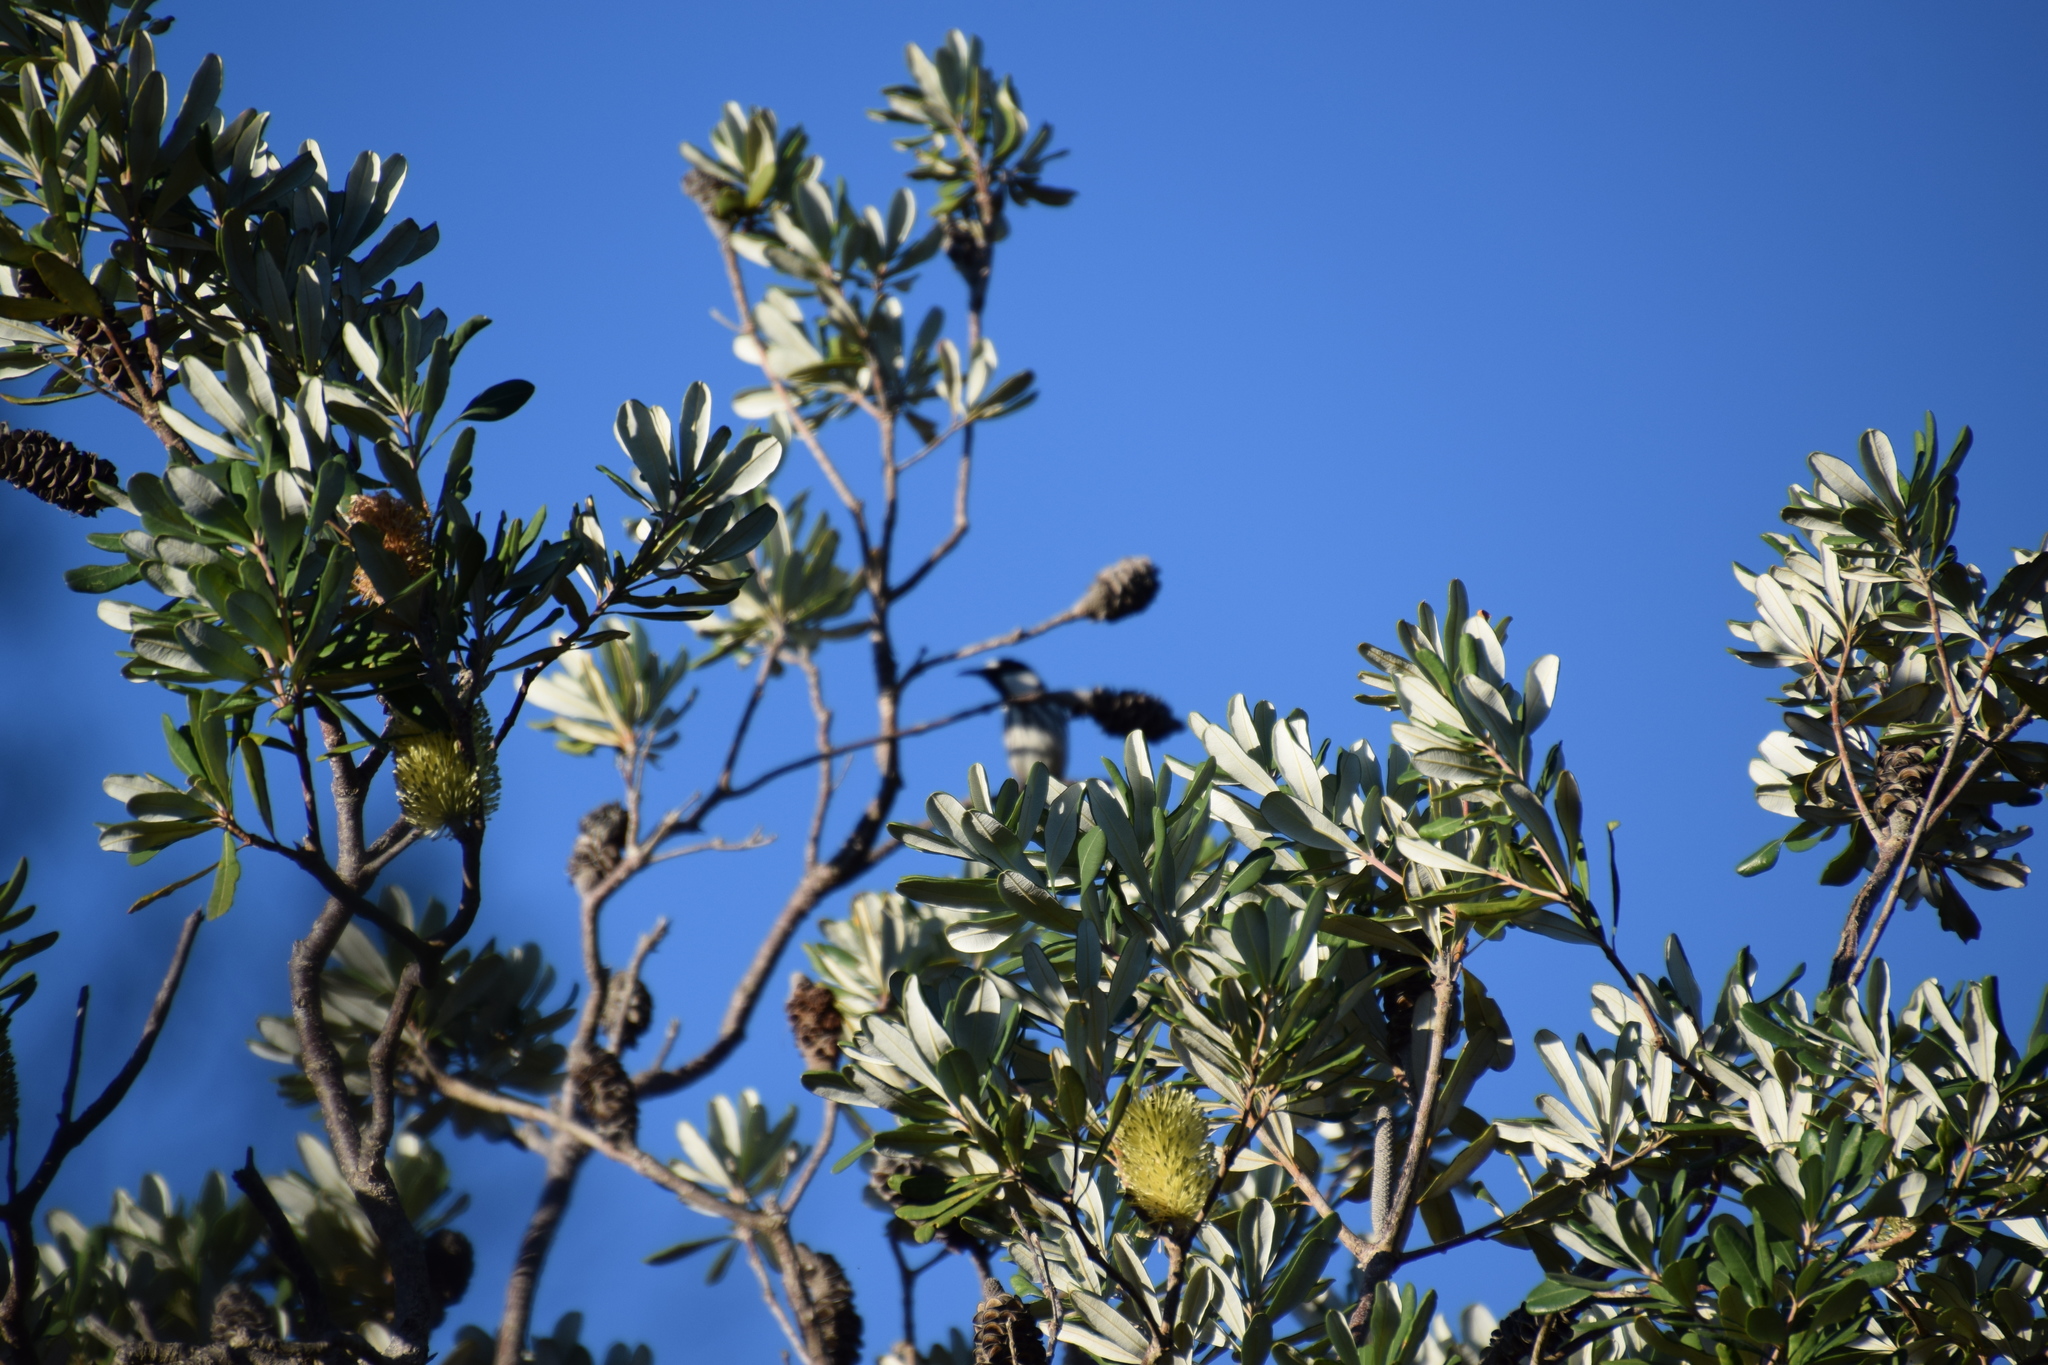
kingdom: Animalia
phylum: Chordata
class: Aves
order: Passeriformes
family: Meliphagidae
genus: Phylidonyris
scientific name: Phylidonyris niger
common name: White-cheeked honeyeater
